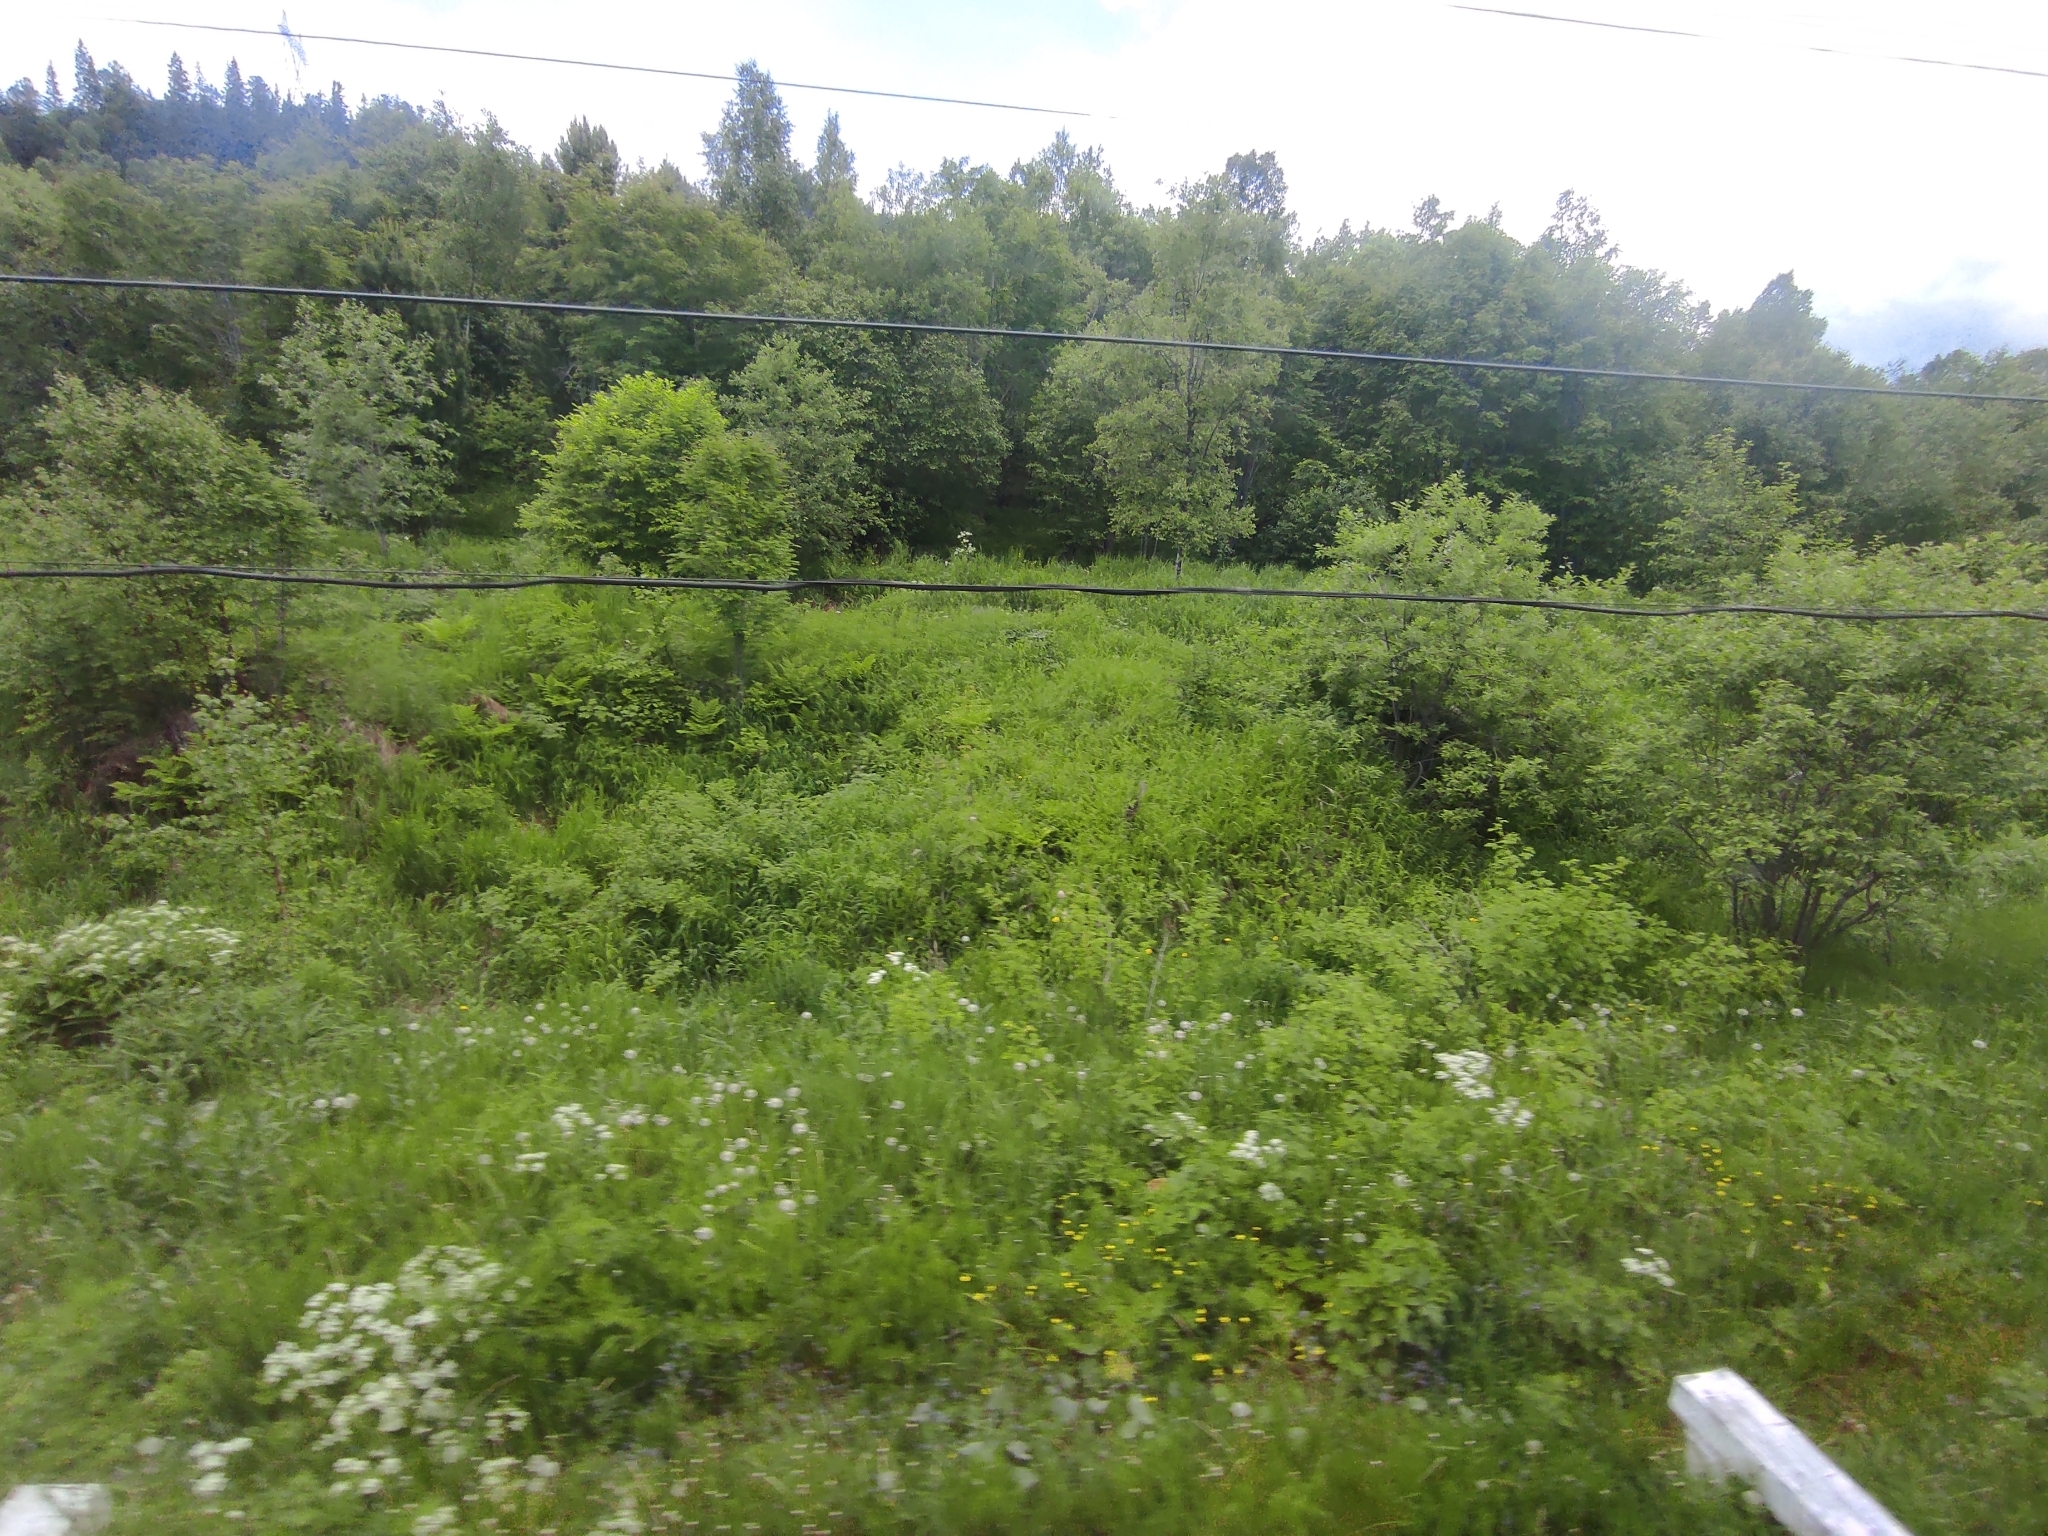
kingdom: Plantae
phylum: Tracheophyta
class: Magnoliopsida
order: Apiales
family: Apiaceae
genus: Anthriscus
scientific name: Anthriscus sylvestris
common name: Cow parsley
